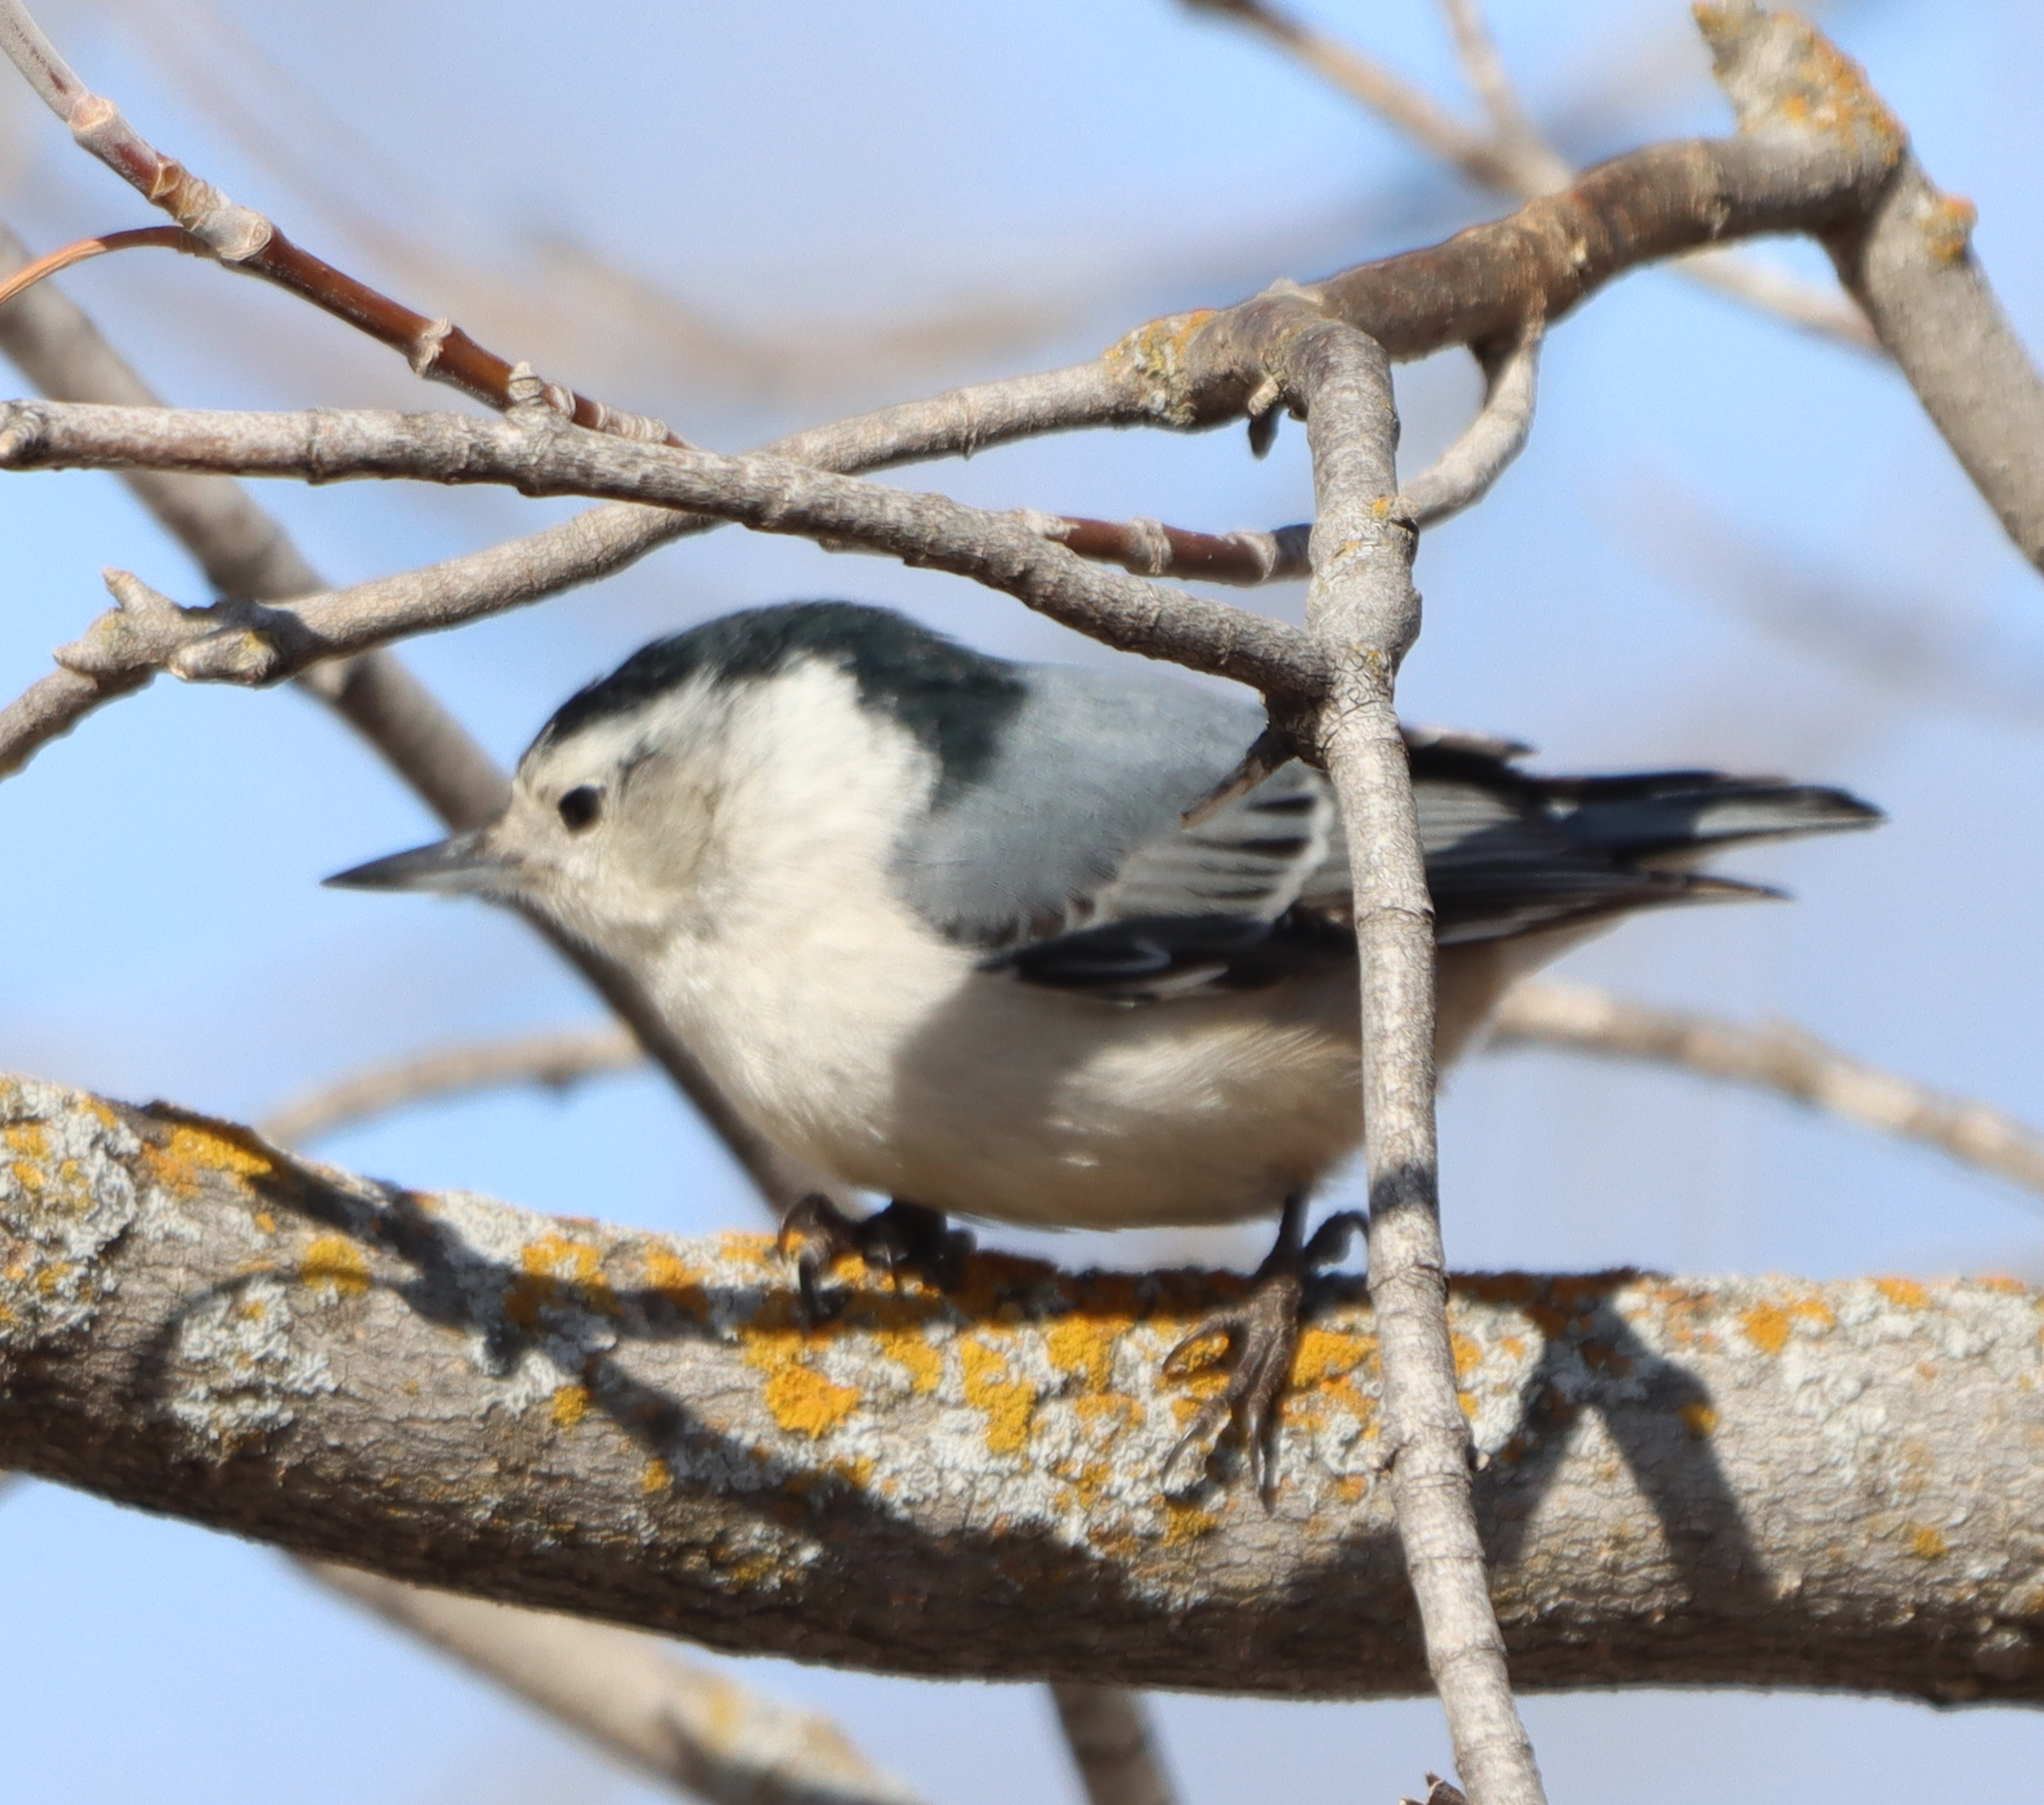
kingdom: Animalia
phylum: Chordata
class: Aves
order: Passeriformes
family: Sittidae
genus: Sitta
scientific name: Sitta carolinensis
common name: White-breasted nuthatch
